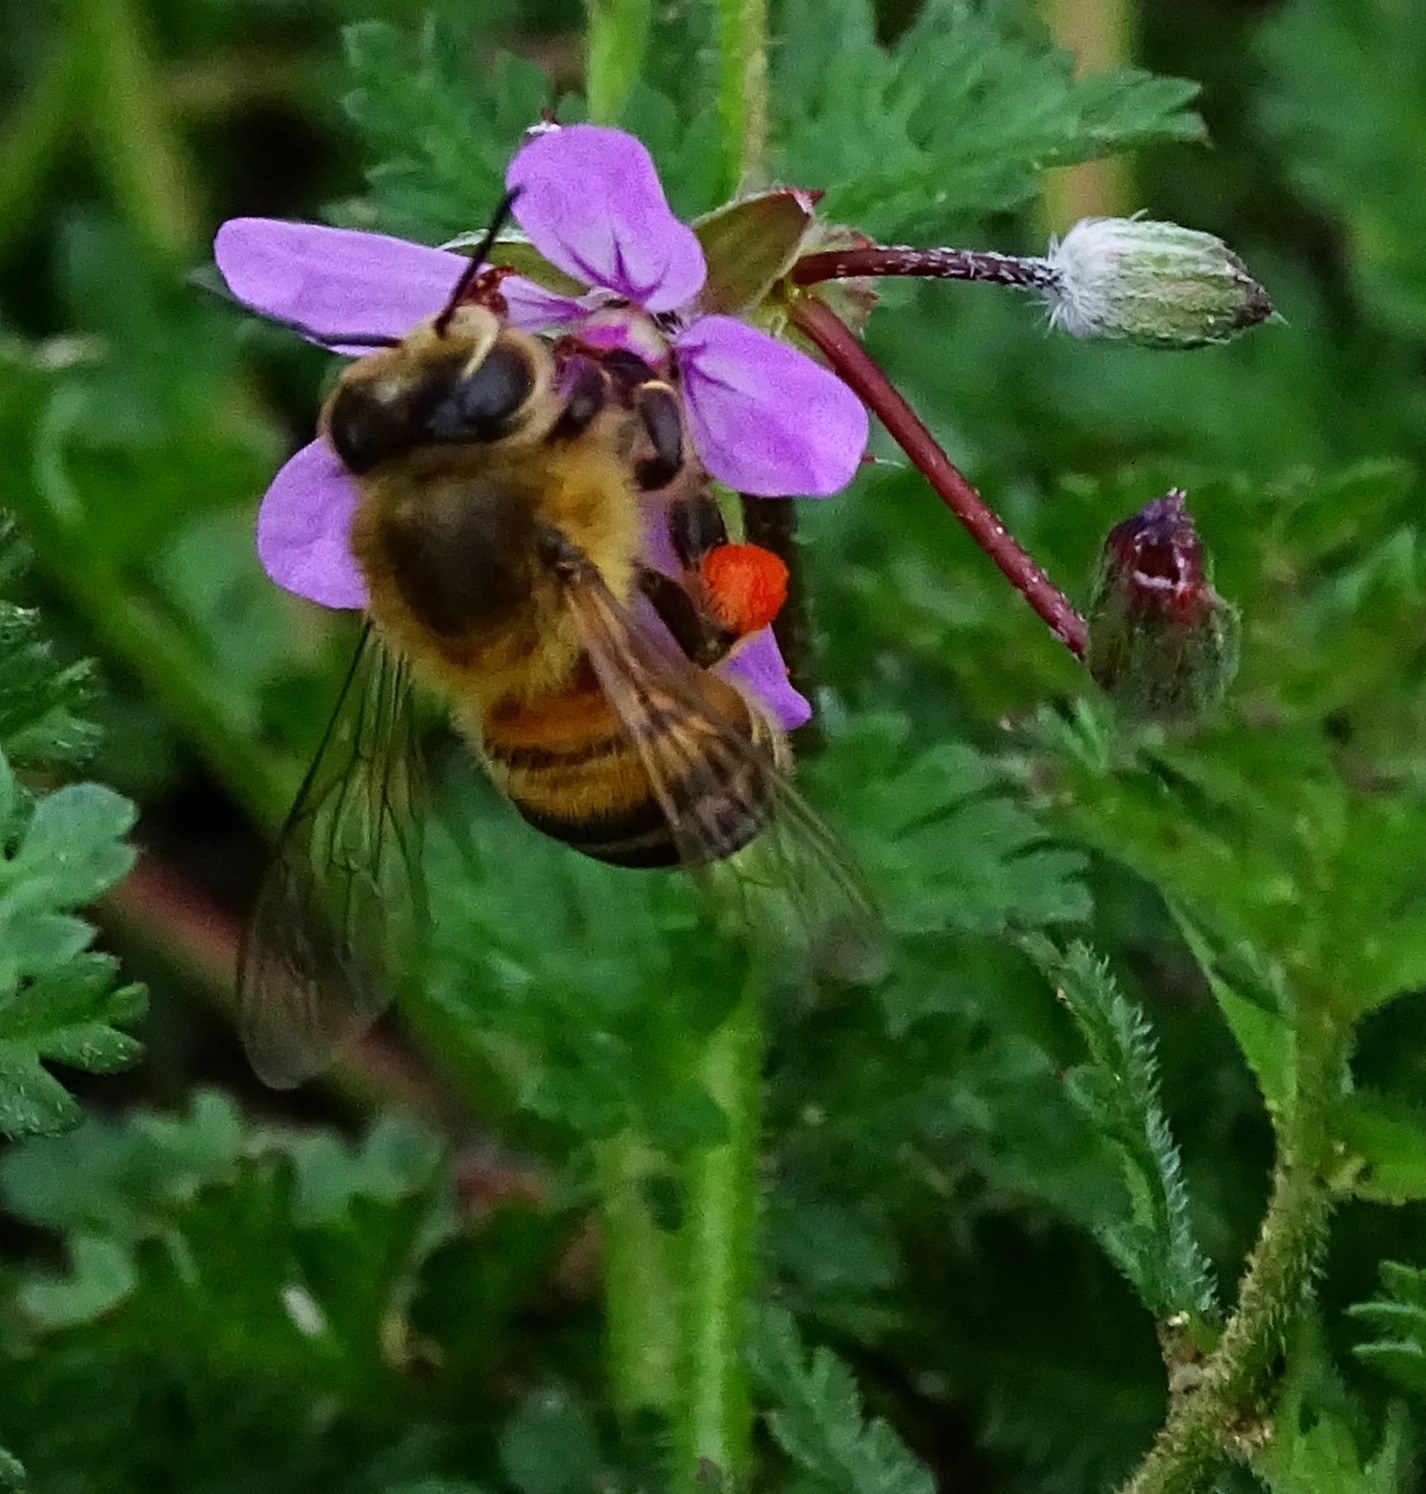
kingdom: Animalia
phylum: Arthropoda
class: Insecta
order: Hymenoptera
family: Apidae
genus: Apis
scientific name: Apis mellifera
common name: Honey bee
